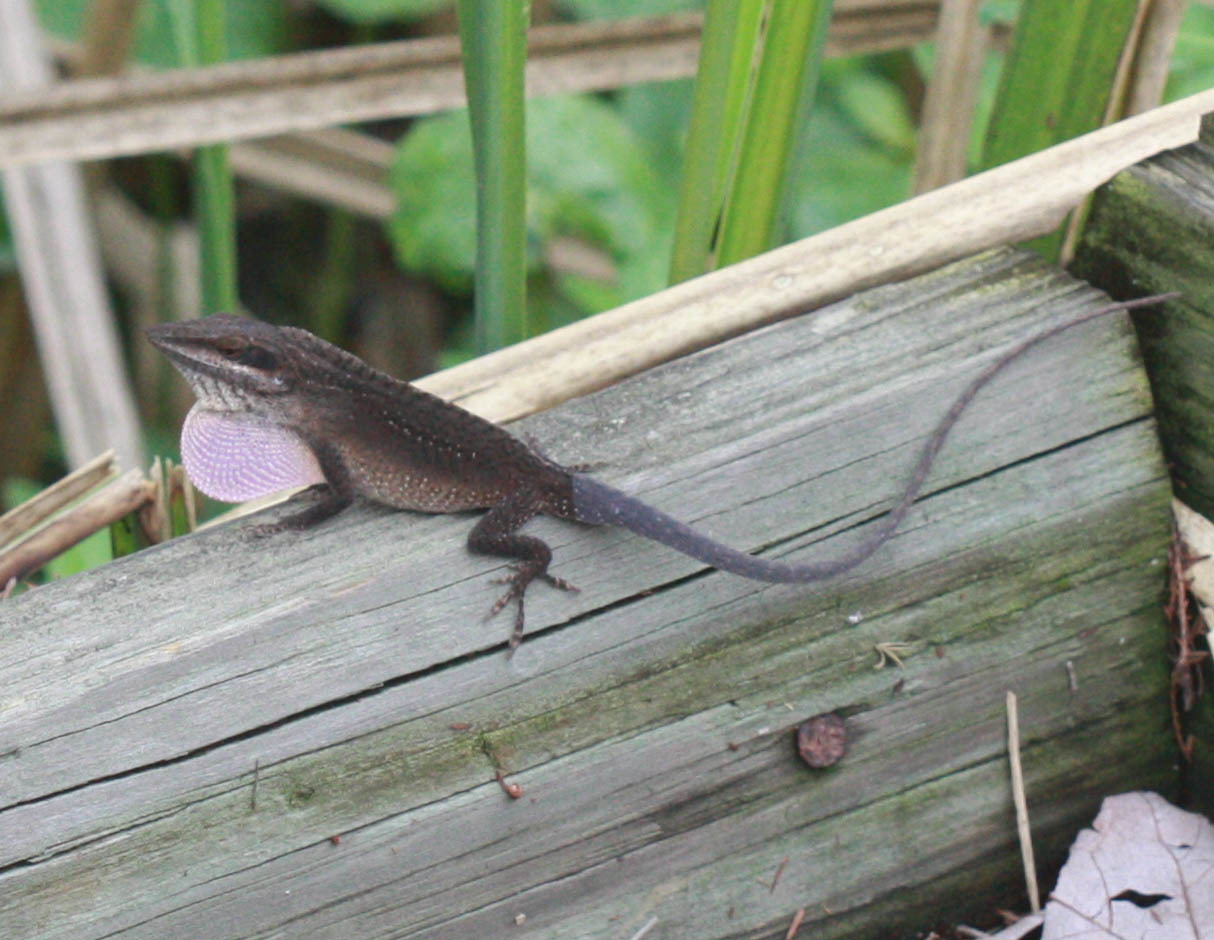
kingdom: Animalia
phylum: Chordata
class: Squamata
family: Dactyloidae
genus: Anolis
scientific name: Anolis carolinensis
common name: Green anole
